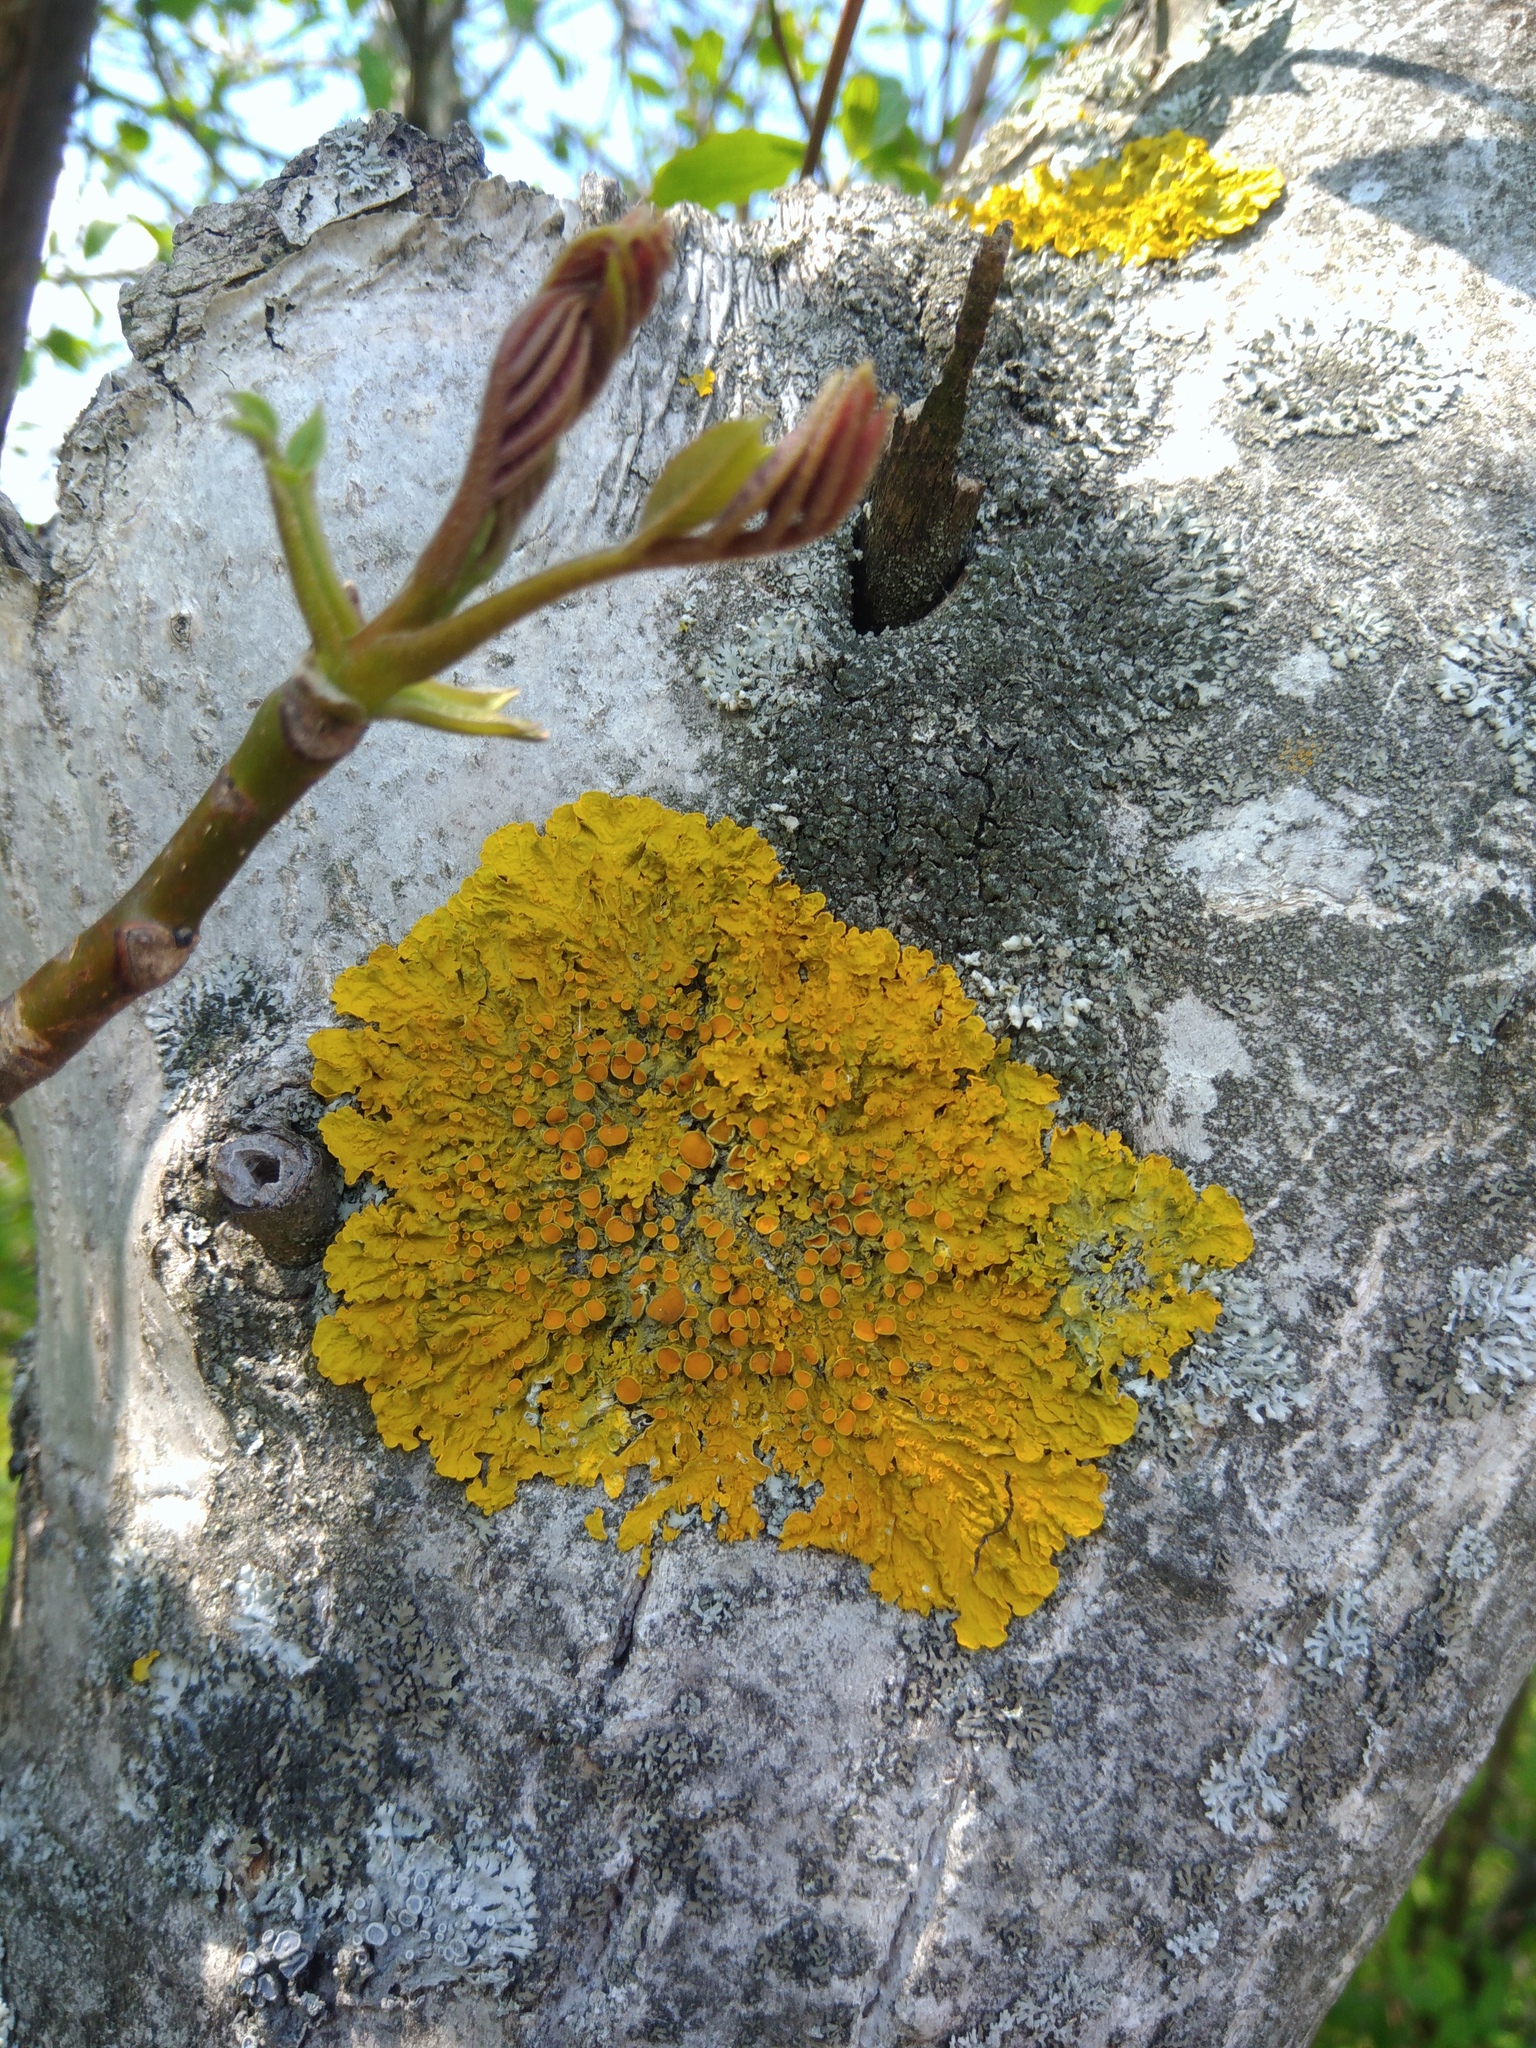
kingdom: Fungi
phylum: Ascomycota
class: Lecanoromycetes
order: Teloschistales
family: Teloschistaceae
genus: Xanthoria
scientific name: Xanthoria parietina
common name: Common orange lichen
